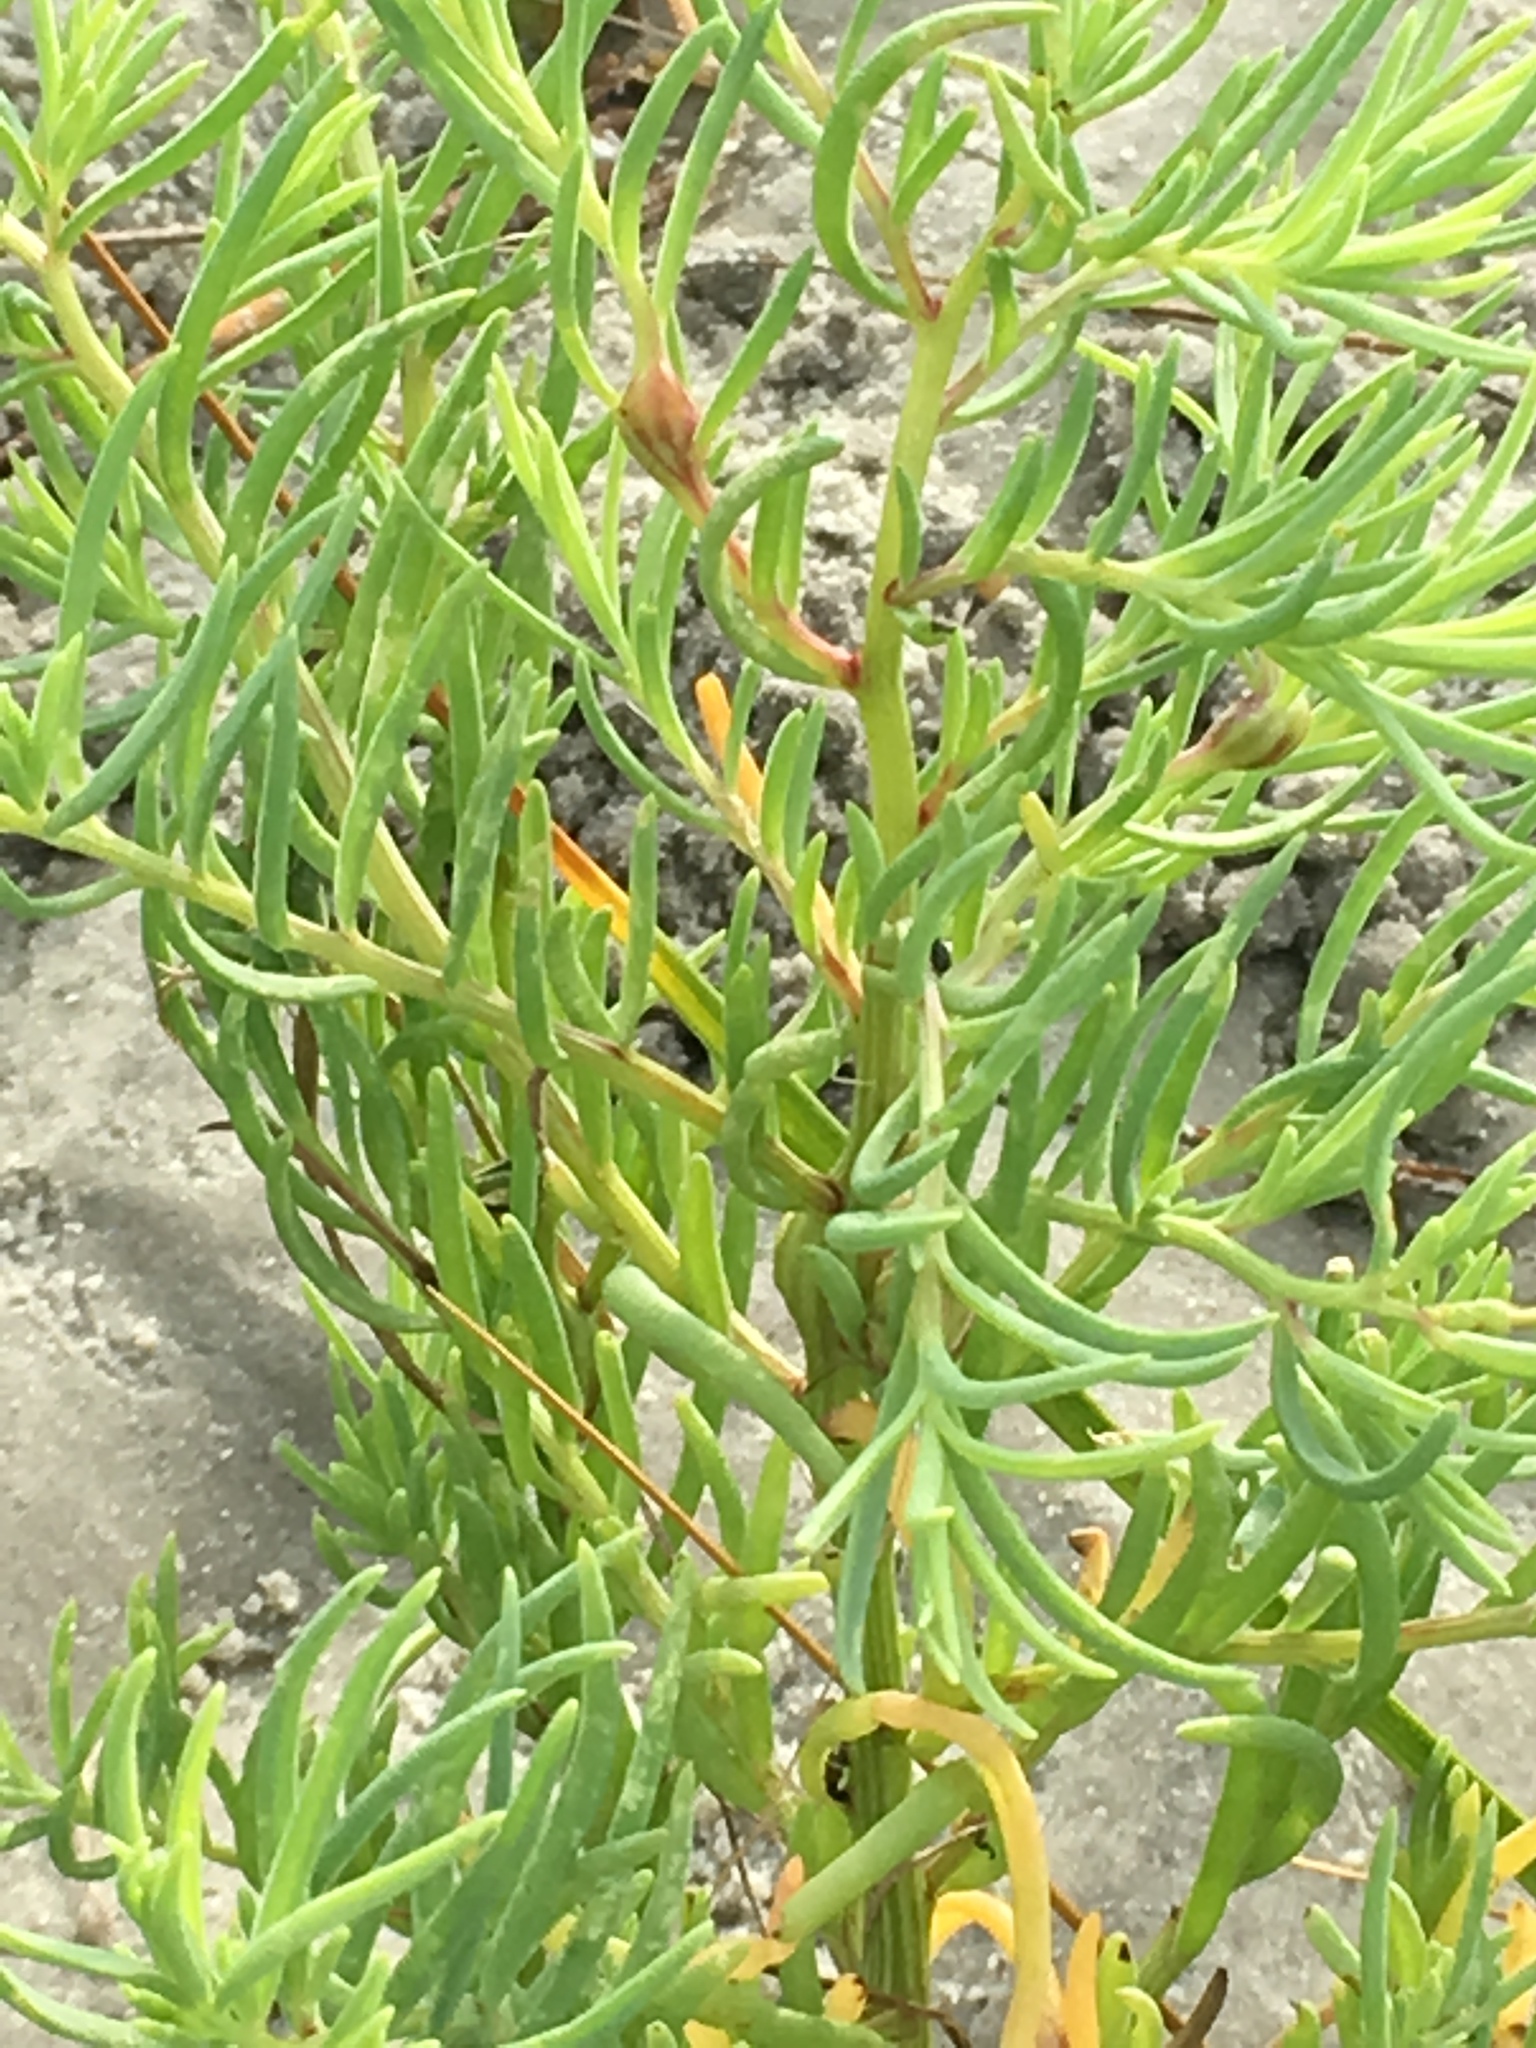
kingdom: Plantae
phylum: Tracheophyta
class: Magnoliopsida
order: Brassicales
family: Bataceae
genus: Batis
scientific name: Batis maritima
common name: Turtleweed
